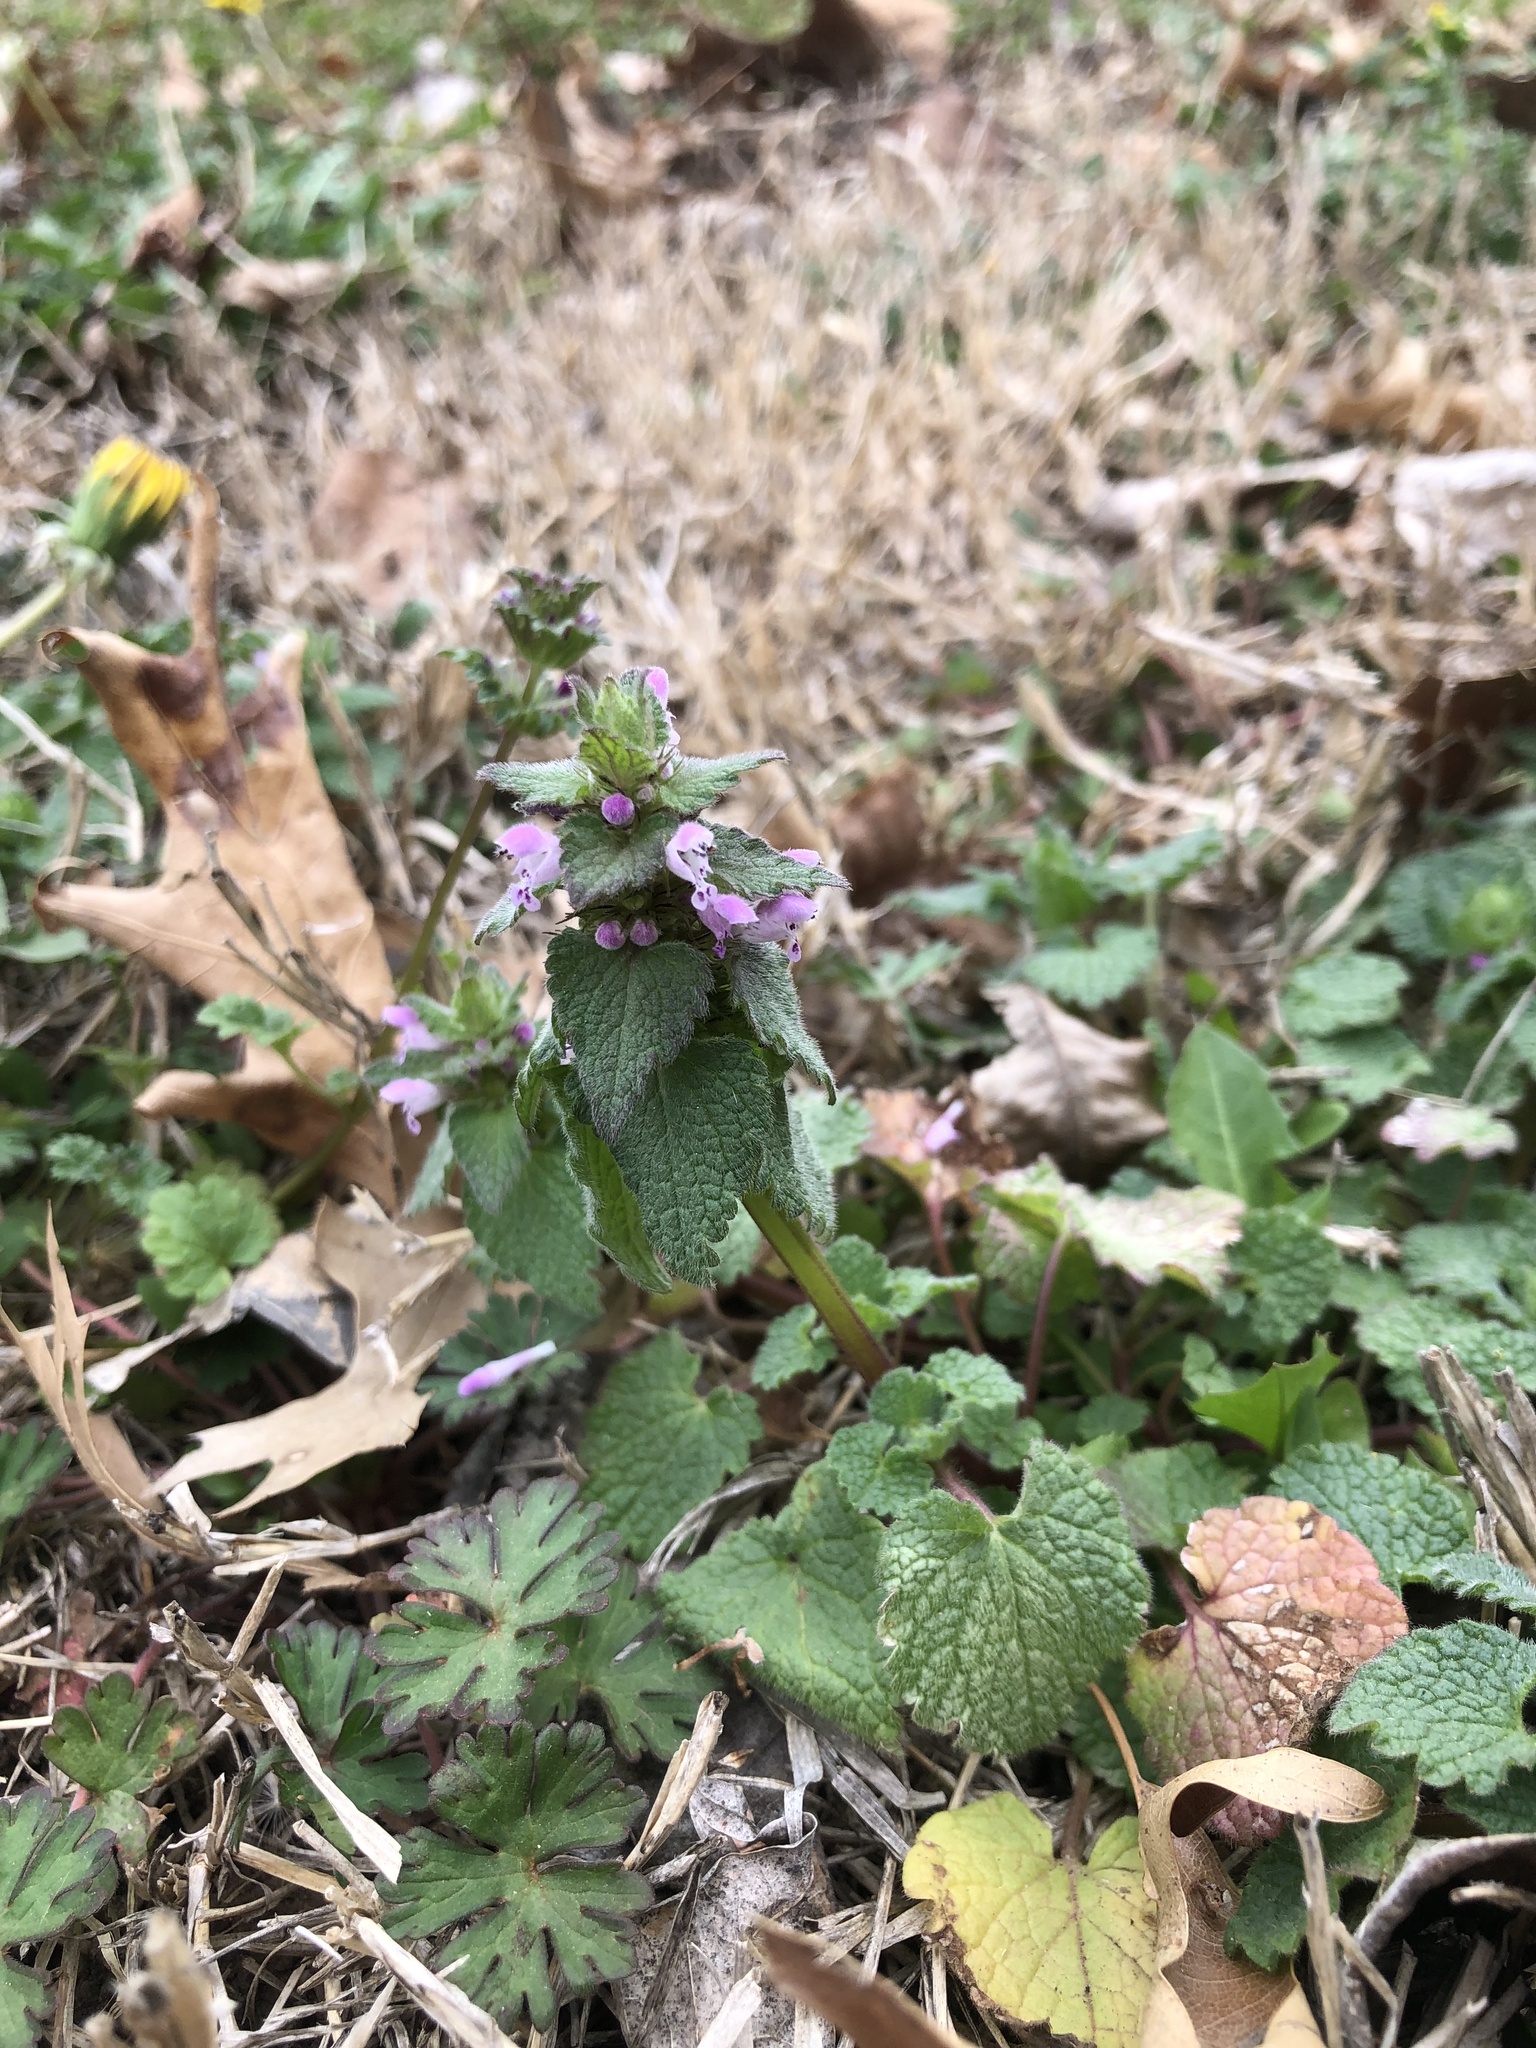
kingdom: Plantae
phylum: Tracheophyta
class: Magnoliopsida
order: Lamiales
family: Lamiaceae
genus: Lamium
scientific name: Lamium purpureum
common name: Red dead-nettle
